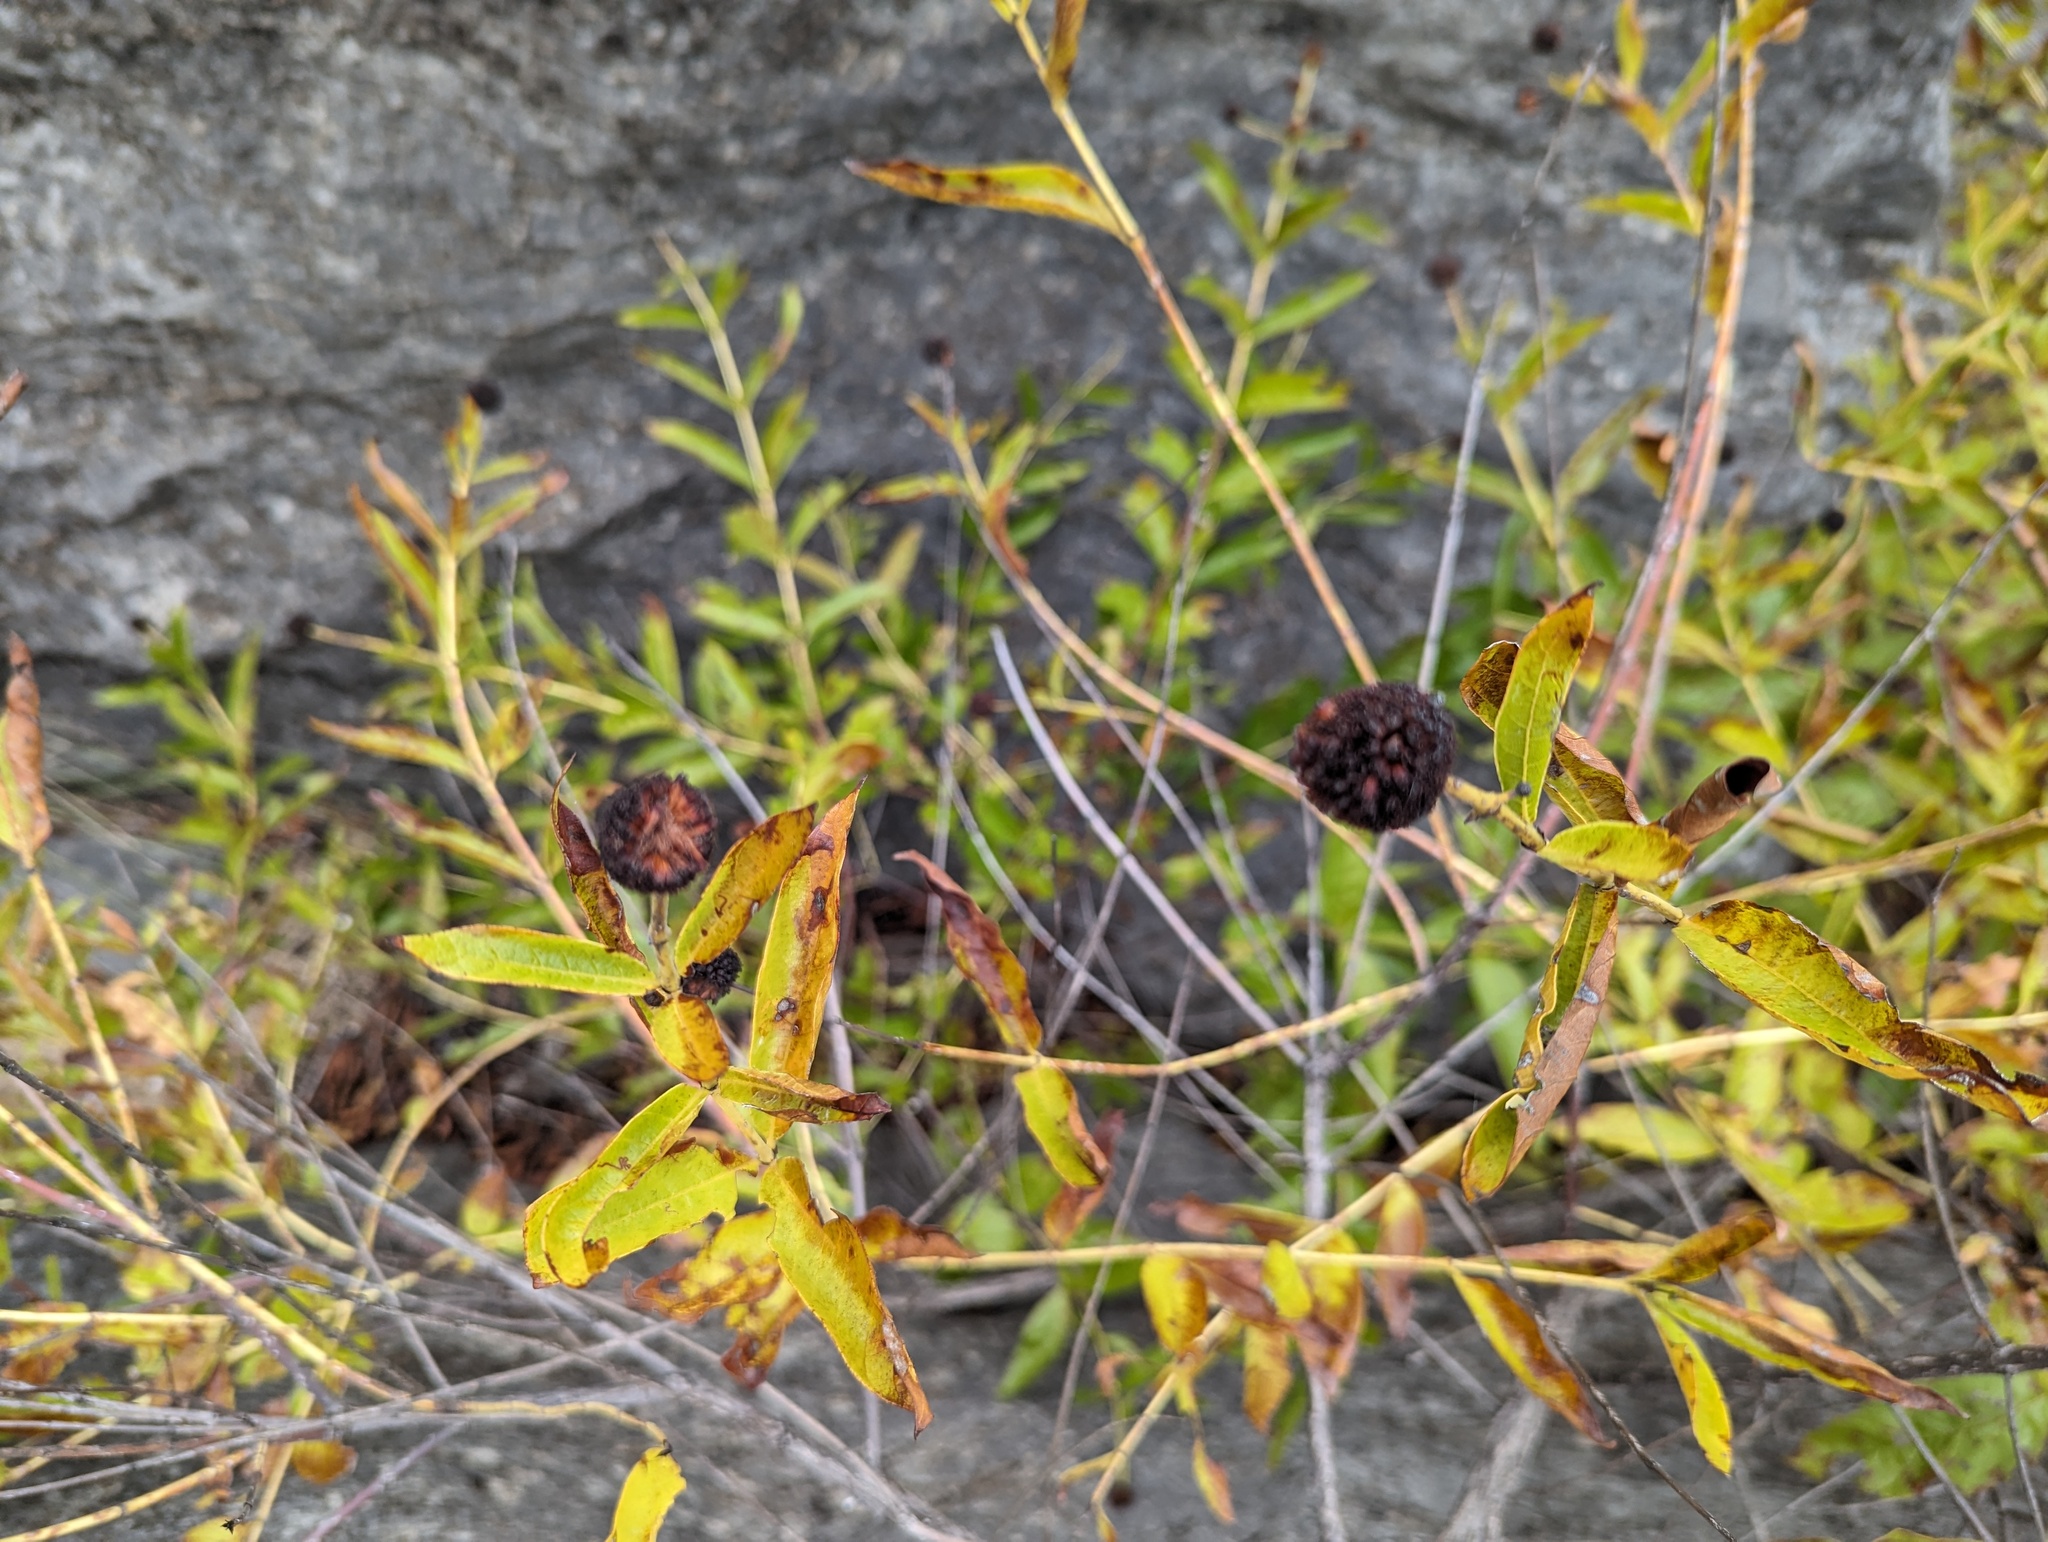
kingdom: Plantae
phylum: Tracheophyta
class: Magnoliopsida
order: Gentianales
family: Rubiaceae
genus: Cephalanthus
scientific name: Cephalanthus occidentalis
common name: Button-willow
